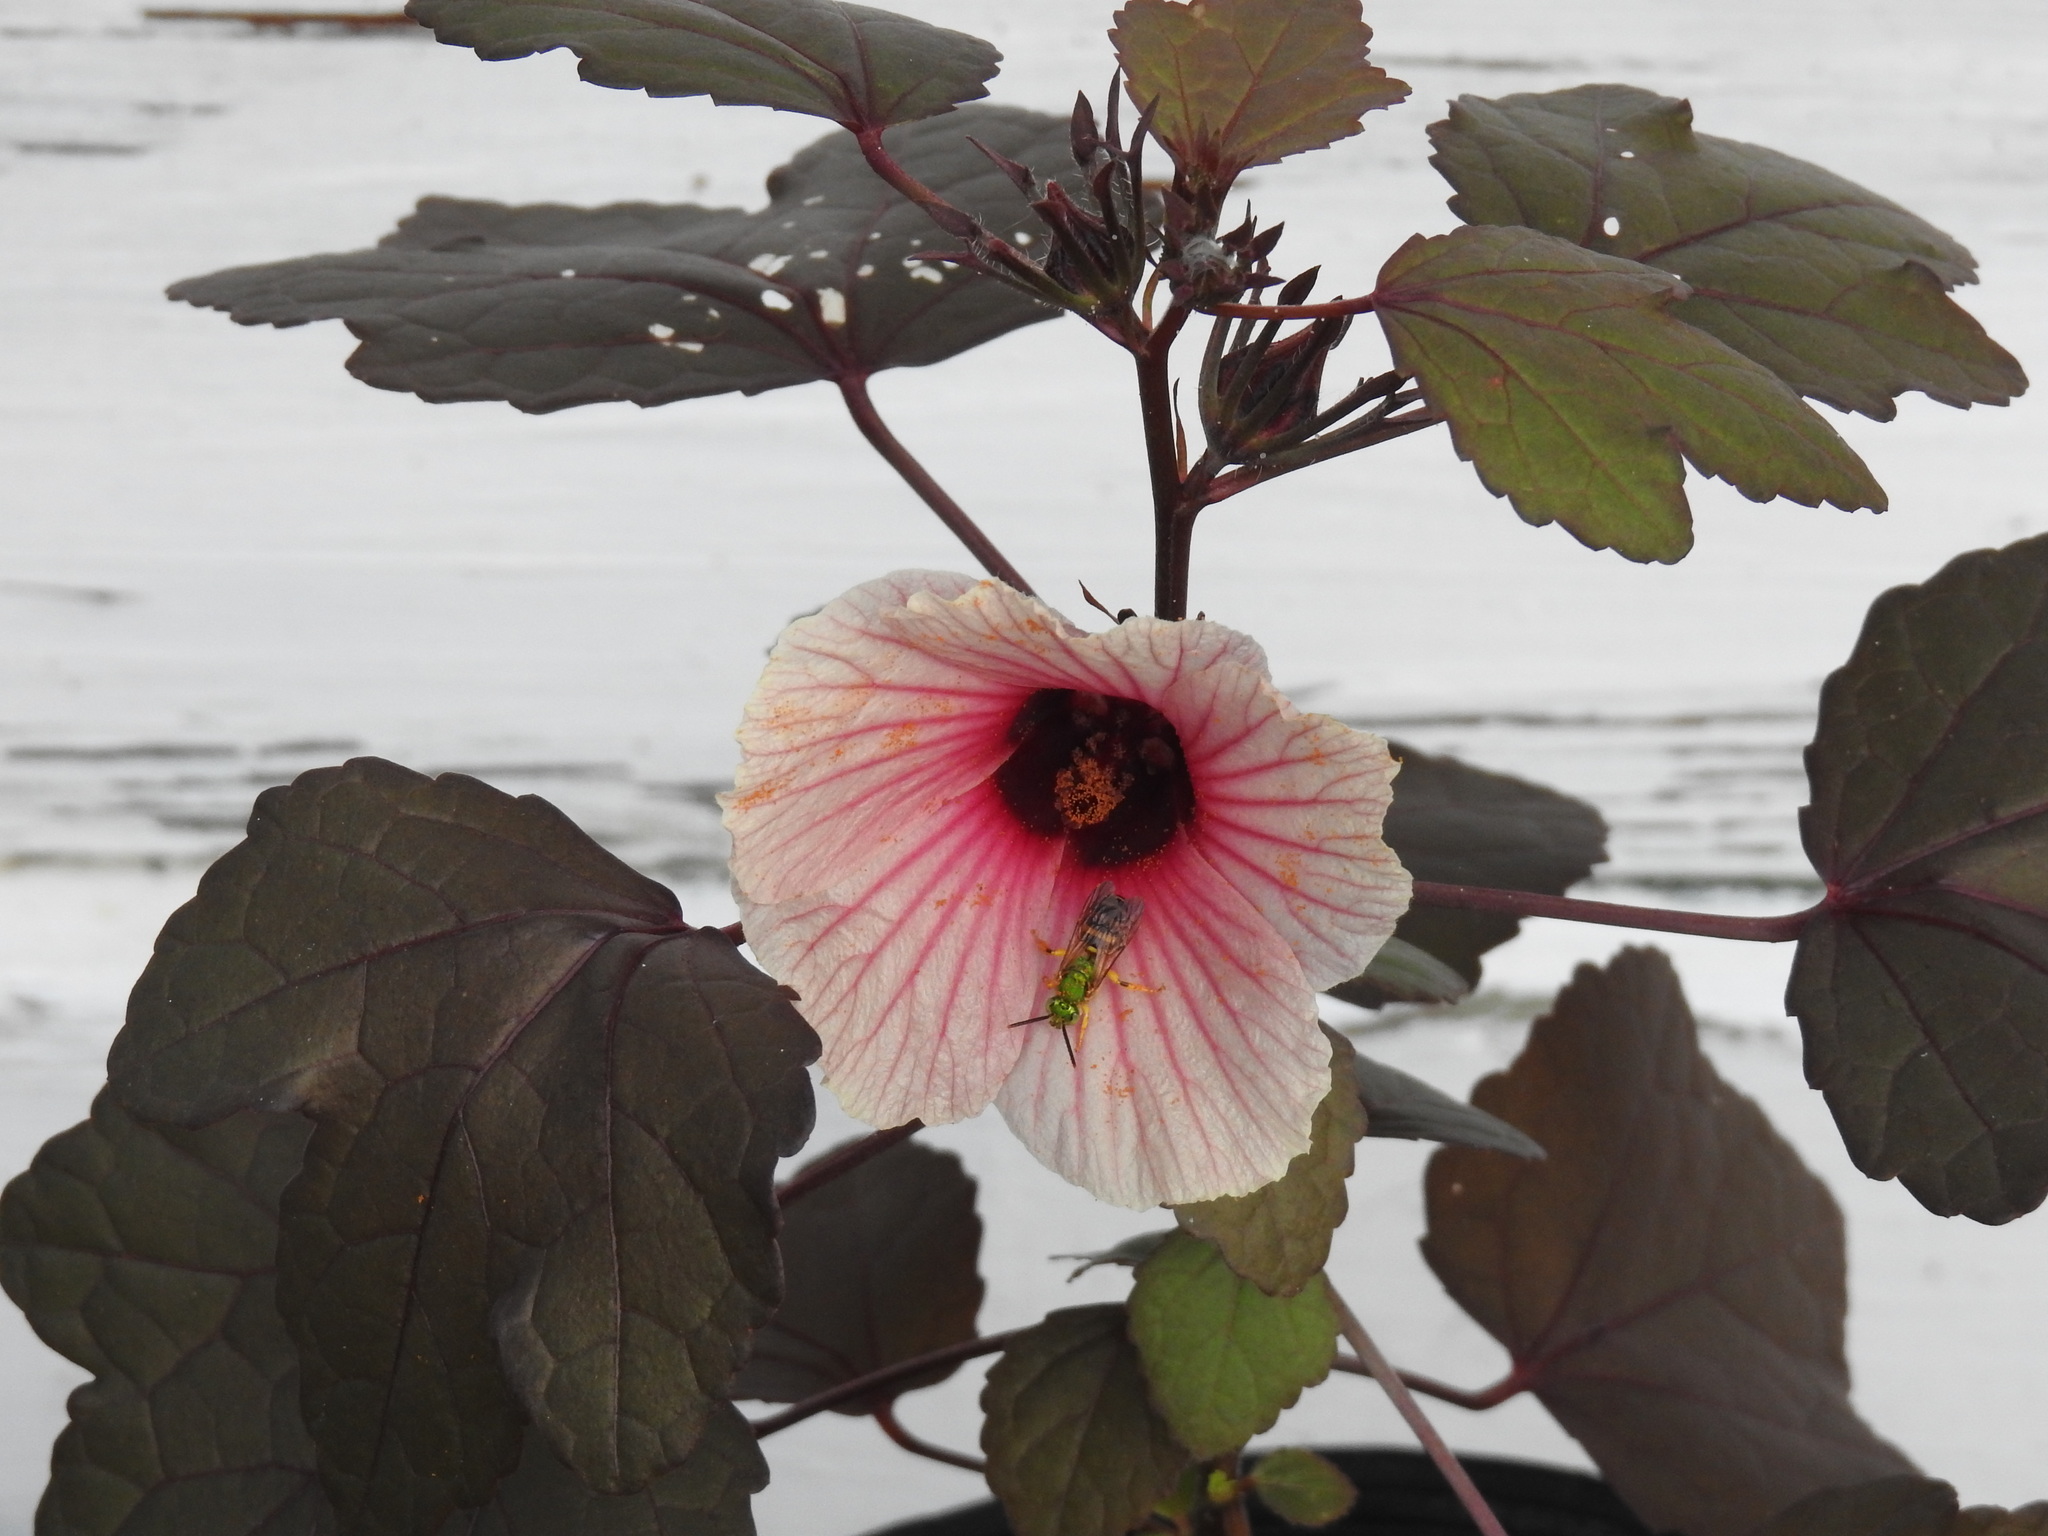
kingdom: Animalia
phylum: Arthropoda
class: Insecta
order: Hymenoptera
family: Halictidae
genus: Agapostemon
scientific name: Agapostemon splendens
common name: Brown-winged striped sweat bee
